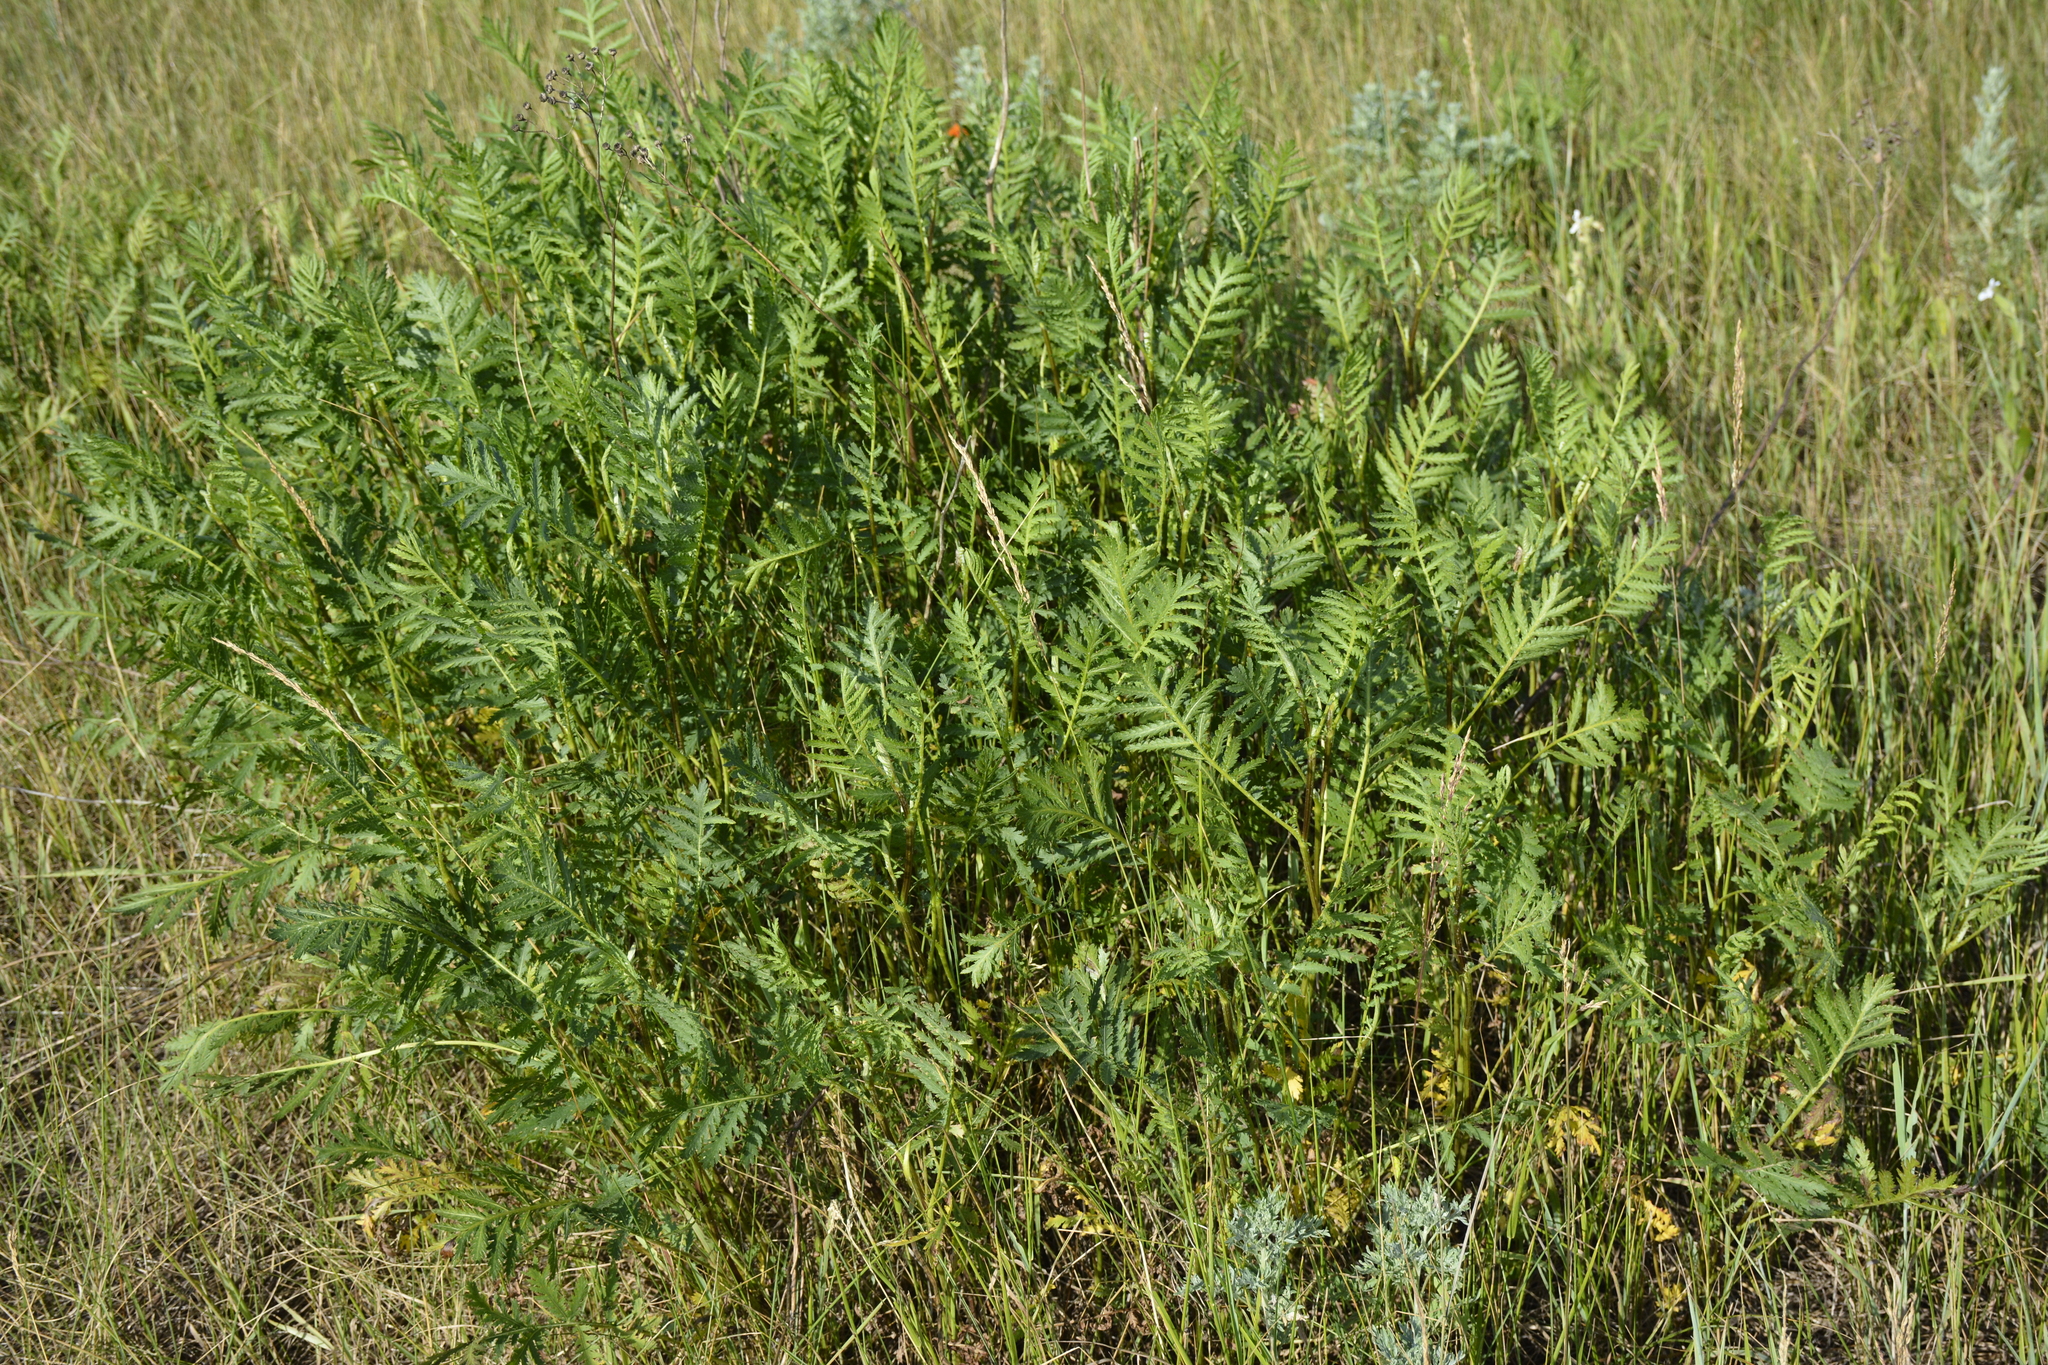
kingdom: Plantae
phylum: Tracheophyta
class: Magnoliopsida
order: Asterales
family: Asteraceae
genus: Tanacetum
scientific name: Tanacetum vulgare
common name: Common tansy
